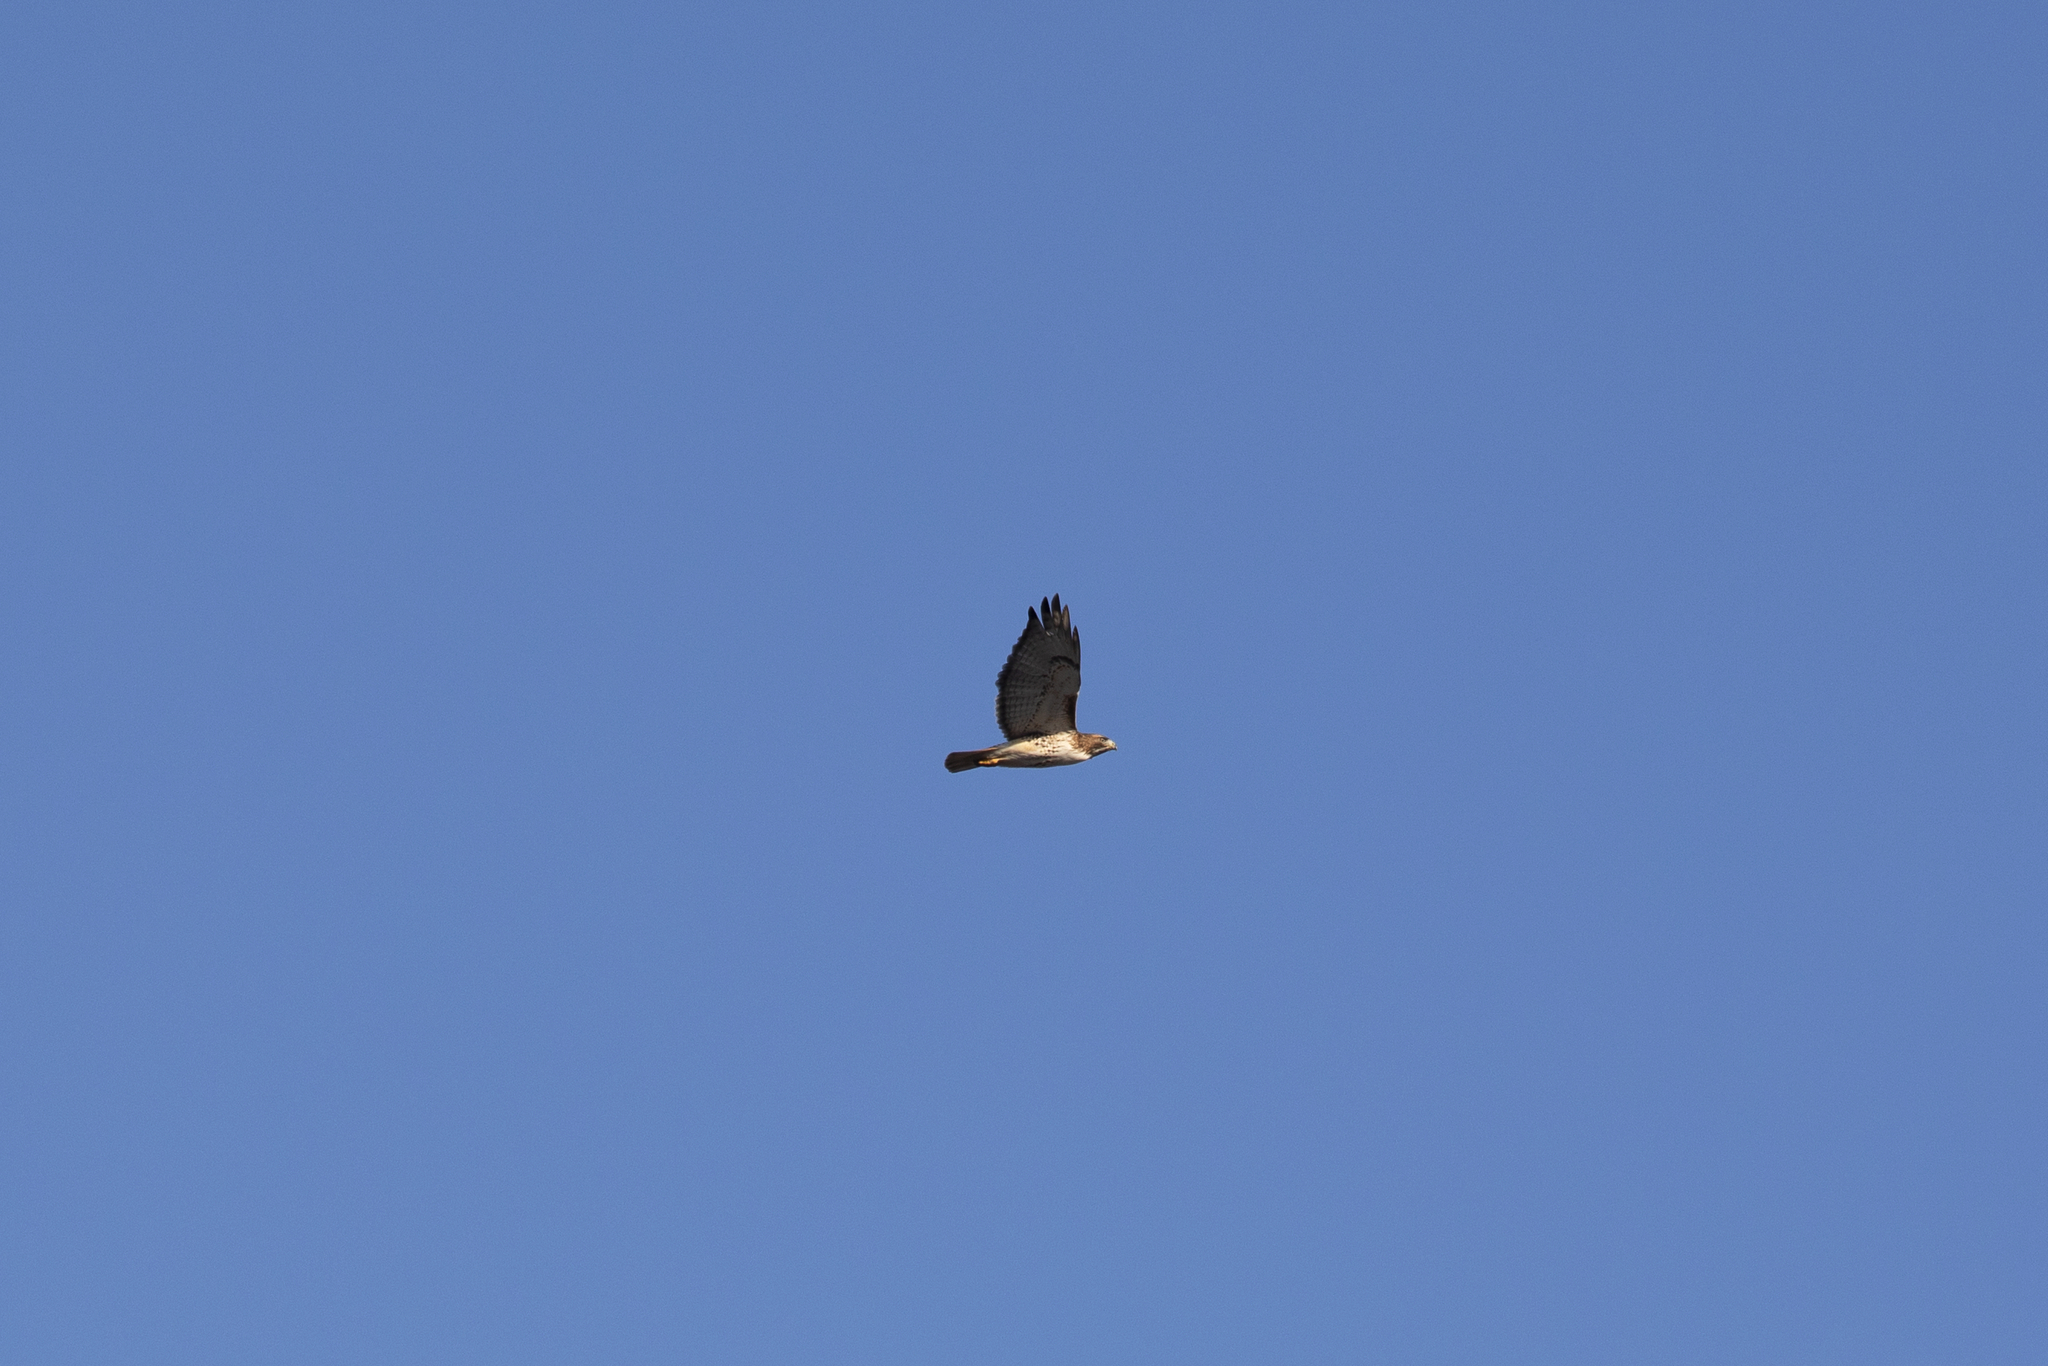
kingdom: Animalia
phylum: Chordata
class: Aves
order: Accipitriformes
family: Accipitridae
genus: Buteo
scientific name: Buteo jamaicensis
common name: Red-tailed hawk
